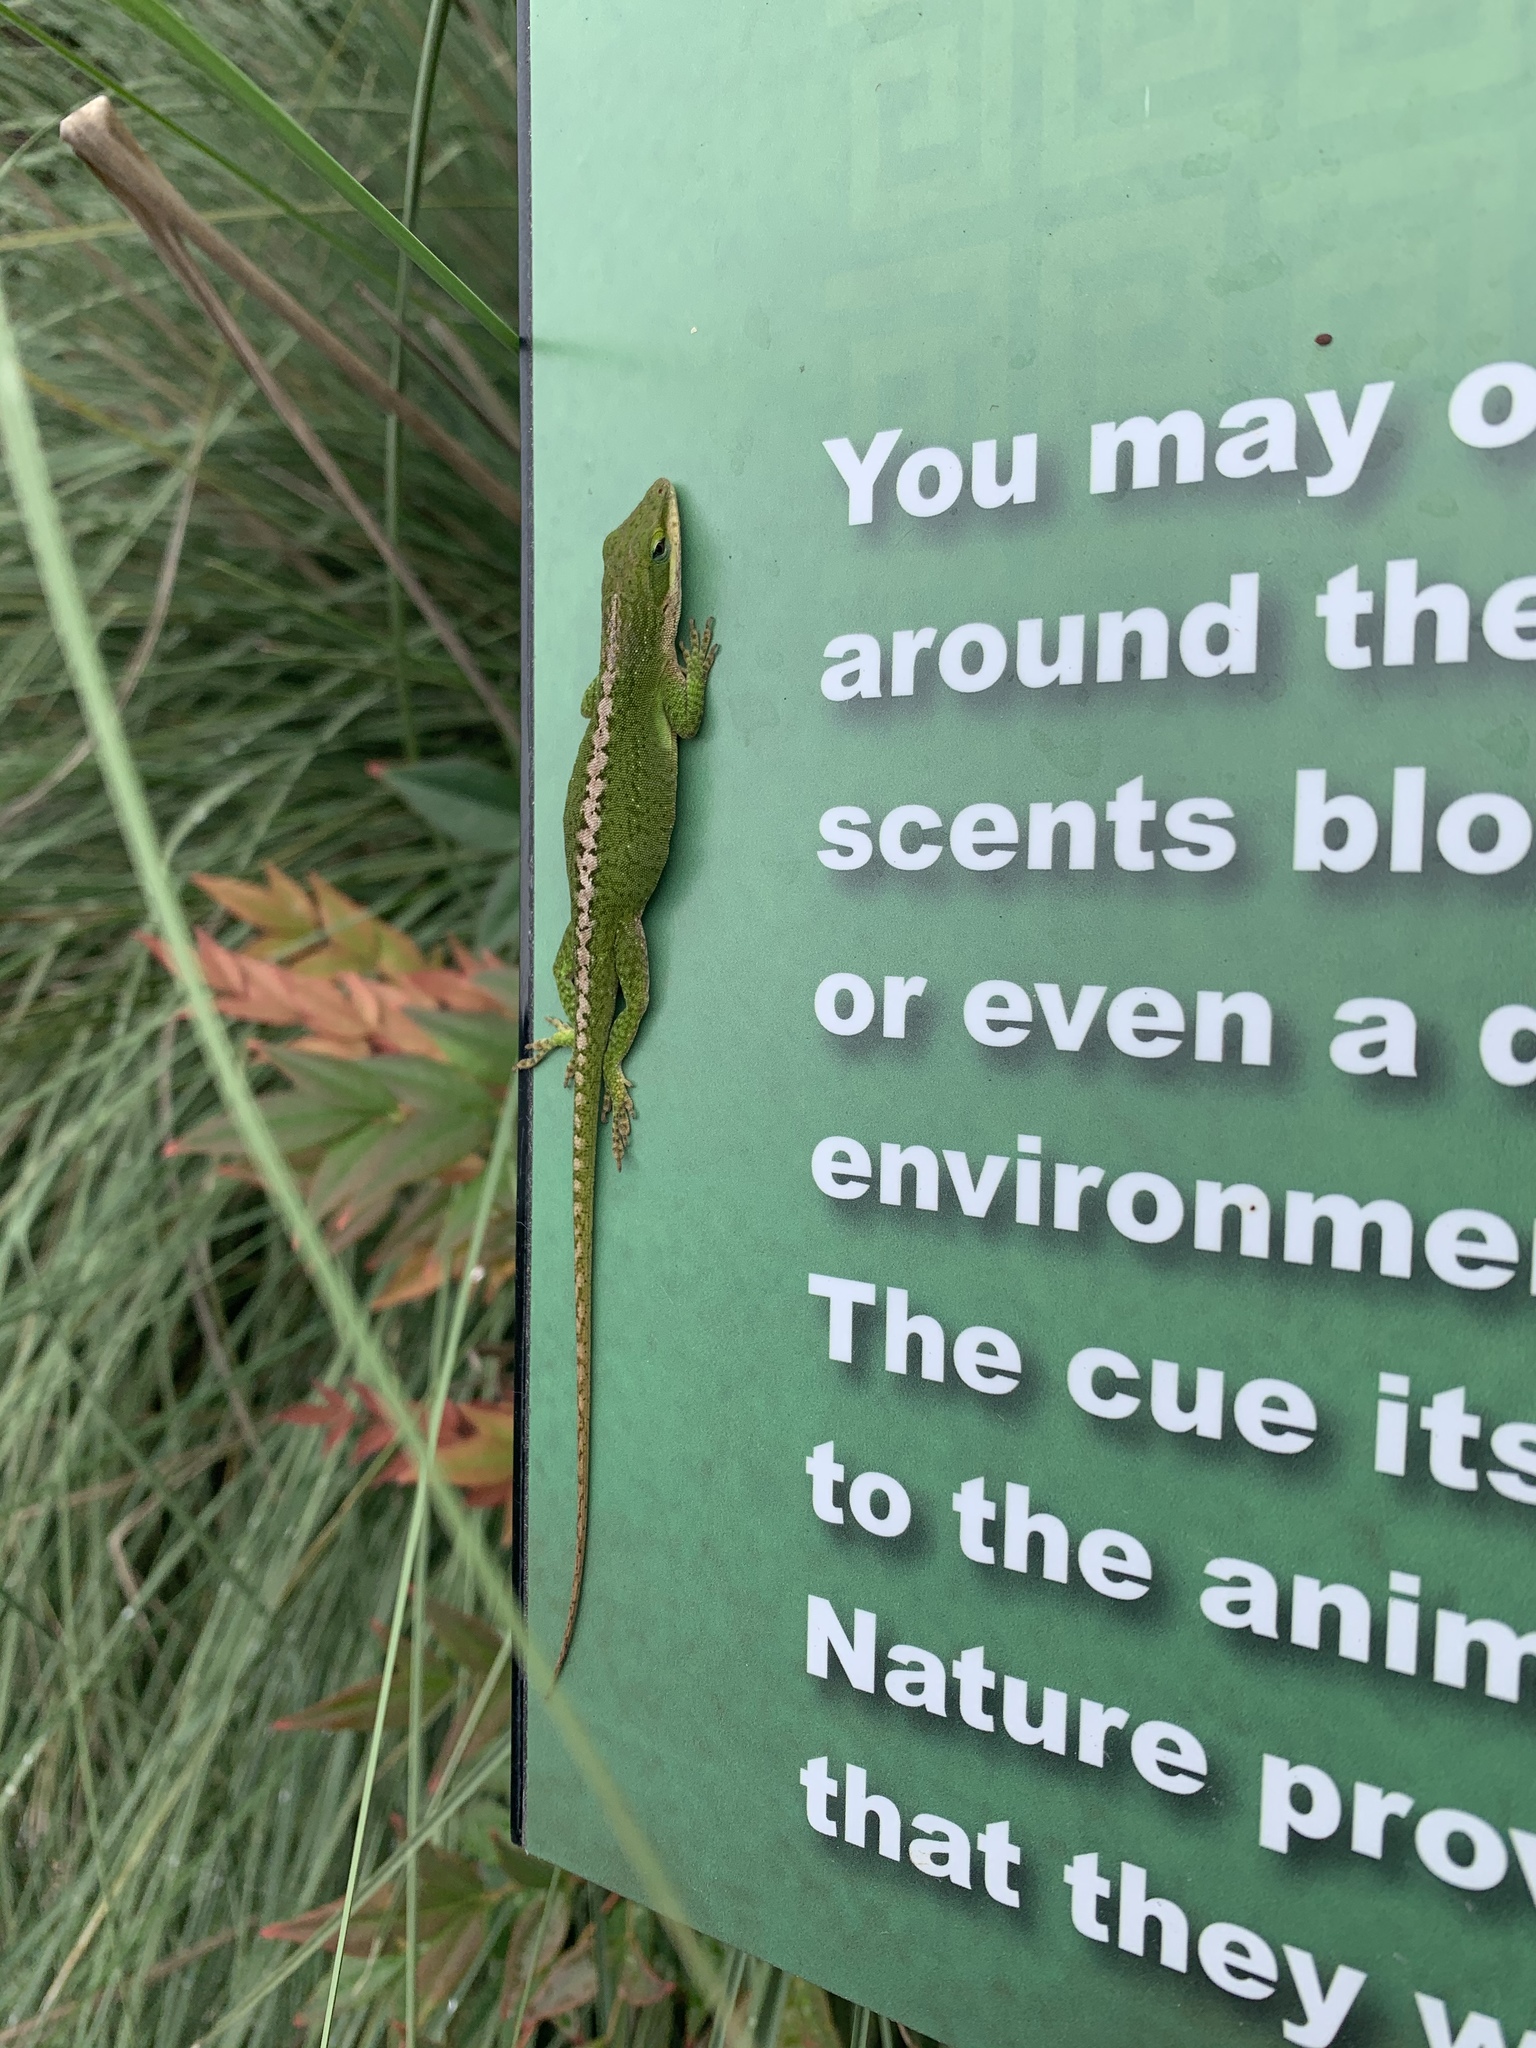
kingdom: Animalia
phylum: Chordata
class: Squamata
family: Dactyloidae
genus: Anolis
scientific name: Anolis carolinensis
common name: Green anole
